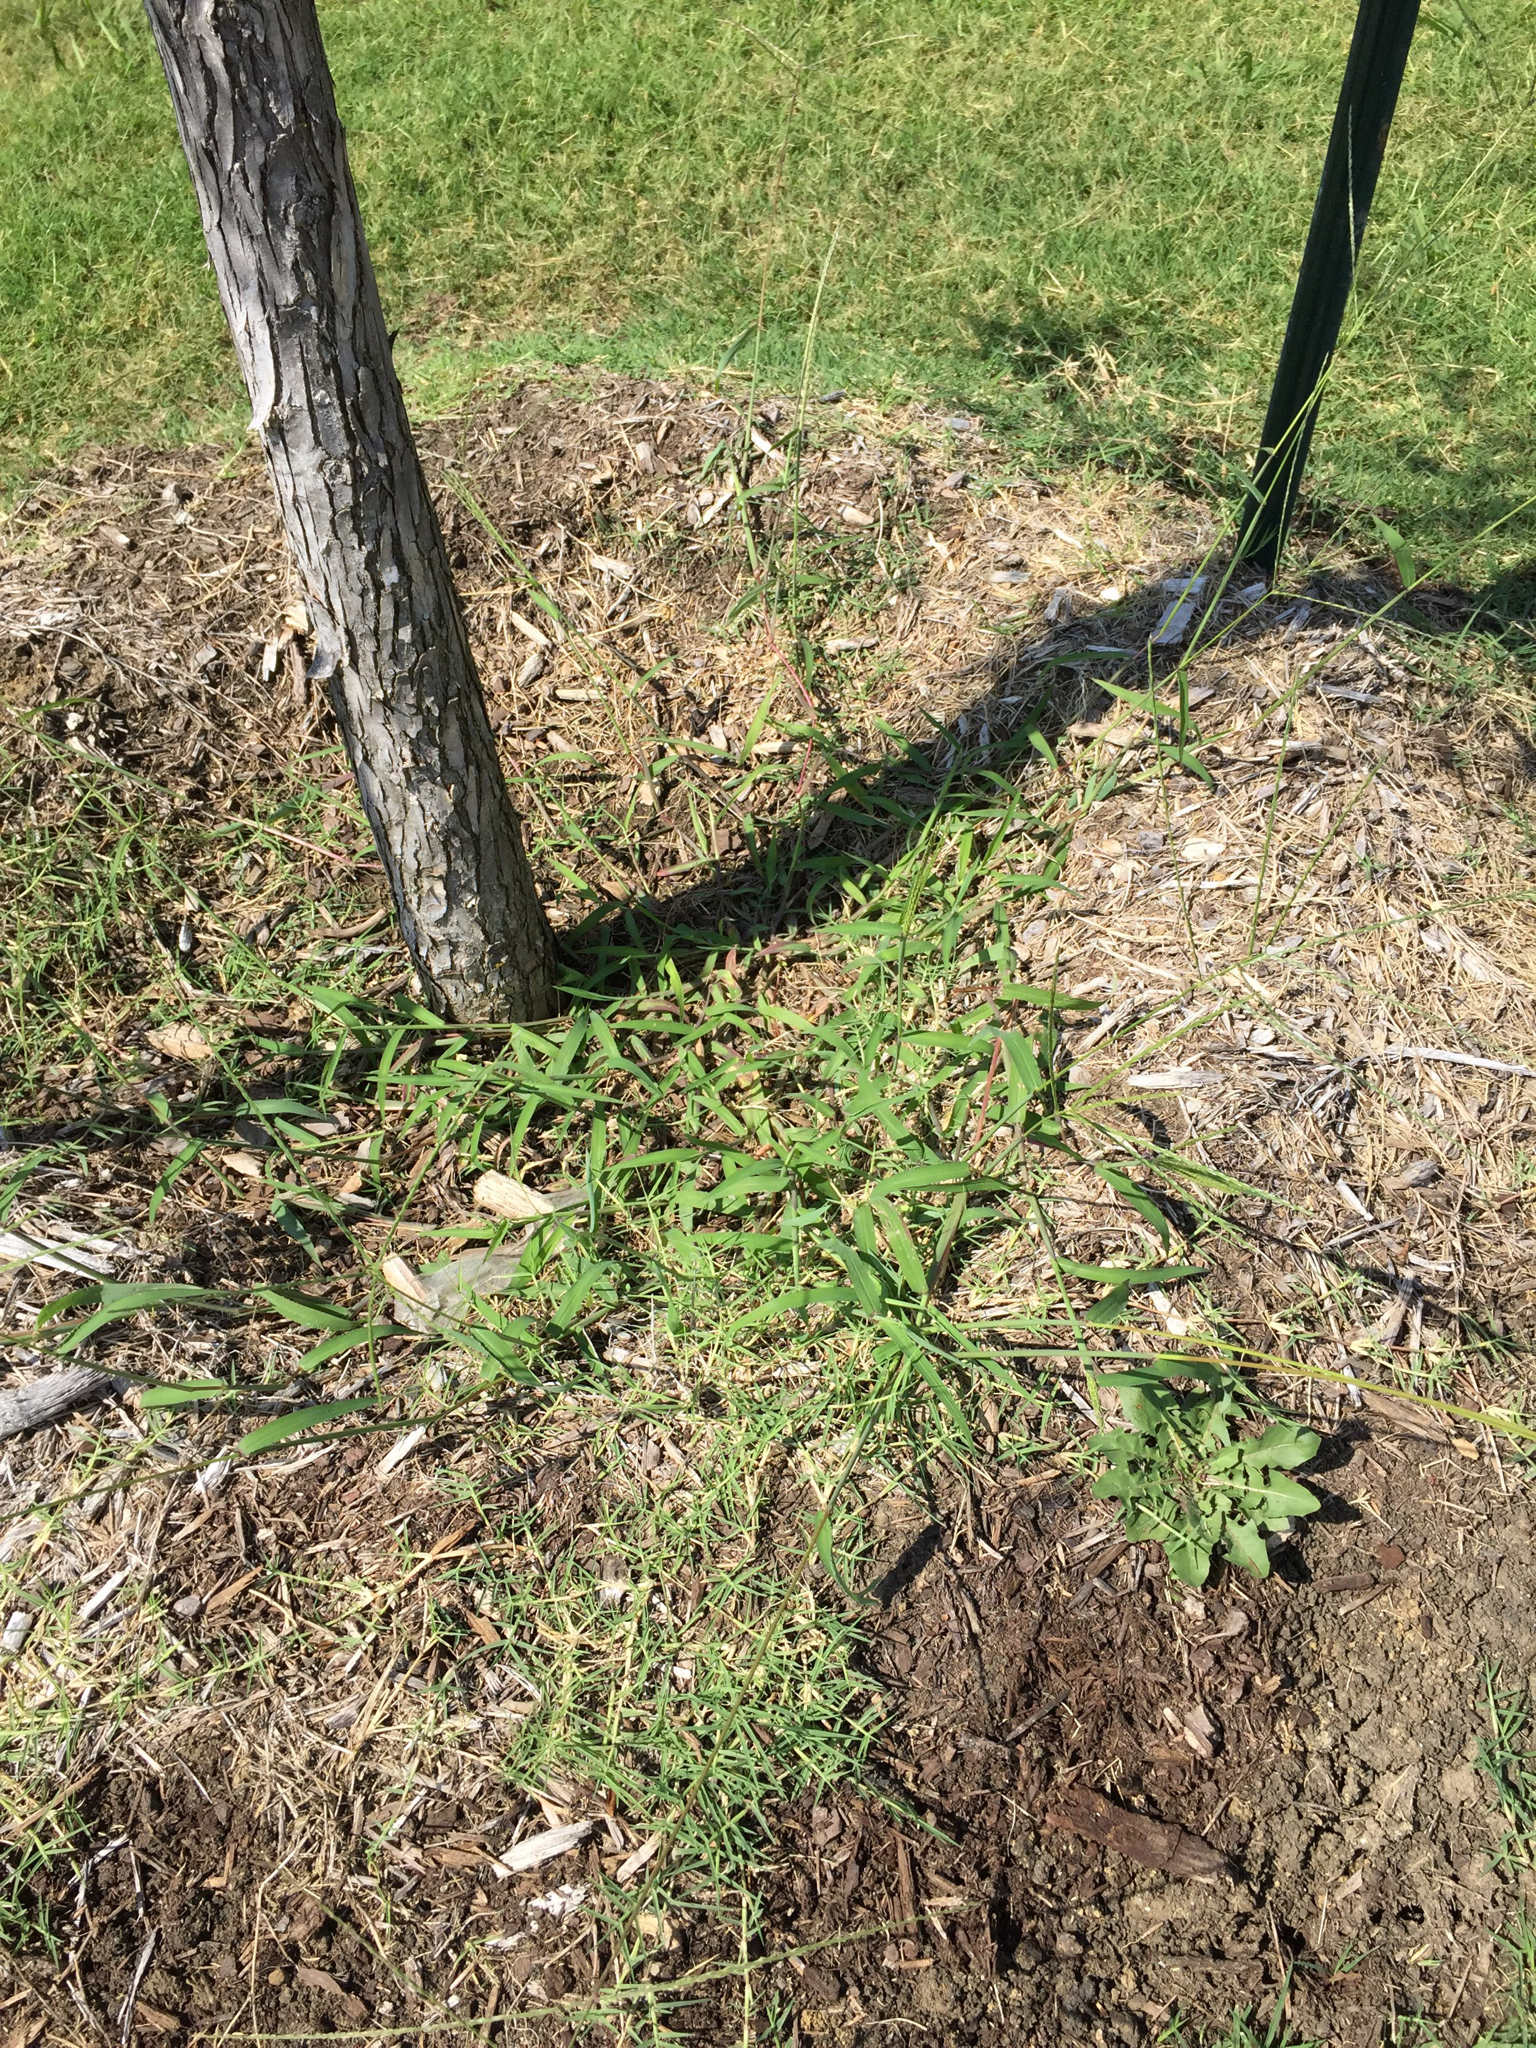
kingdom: Plantae
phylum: Tracheophyta
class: Liliopsida
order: Poales
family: Poaceae
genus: Digitaria
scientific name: Digitaria ciliaris
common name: Tropical finger-grass
